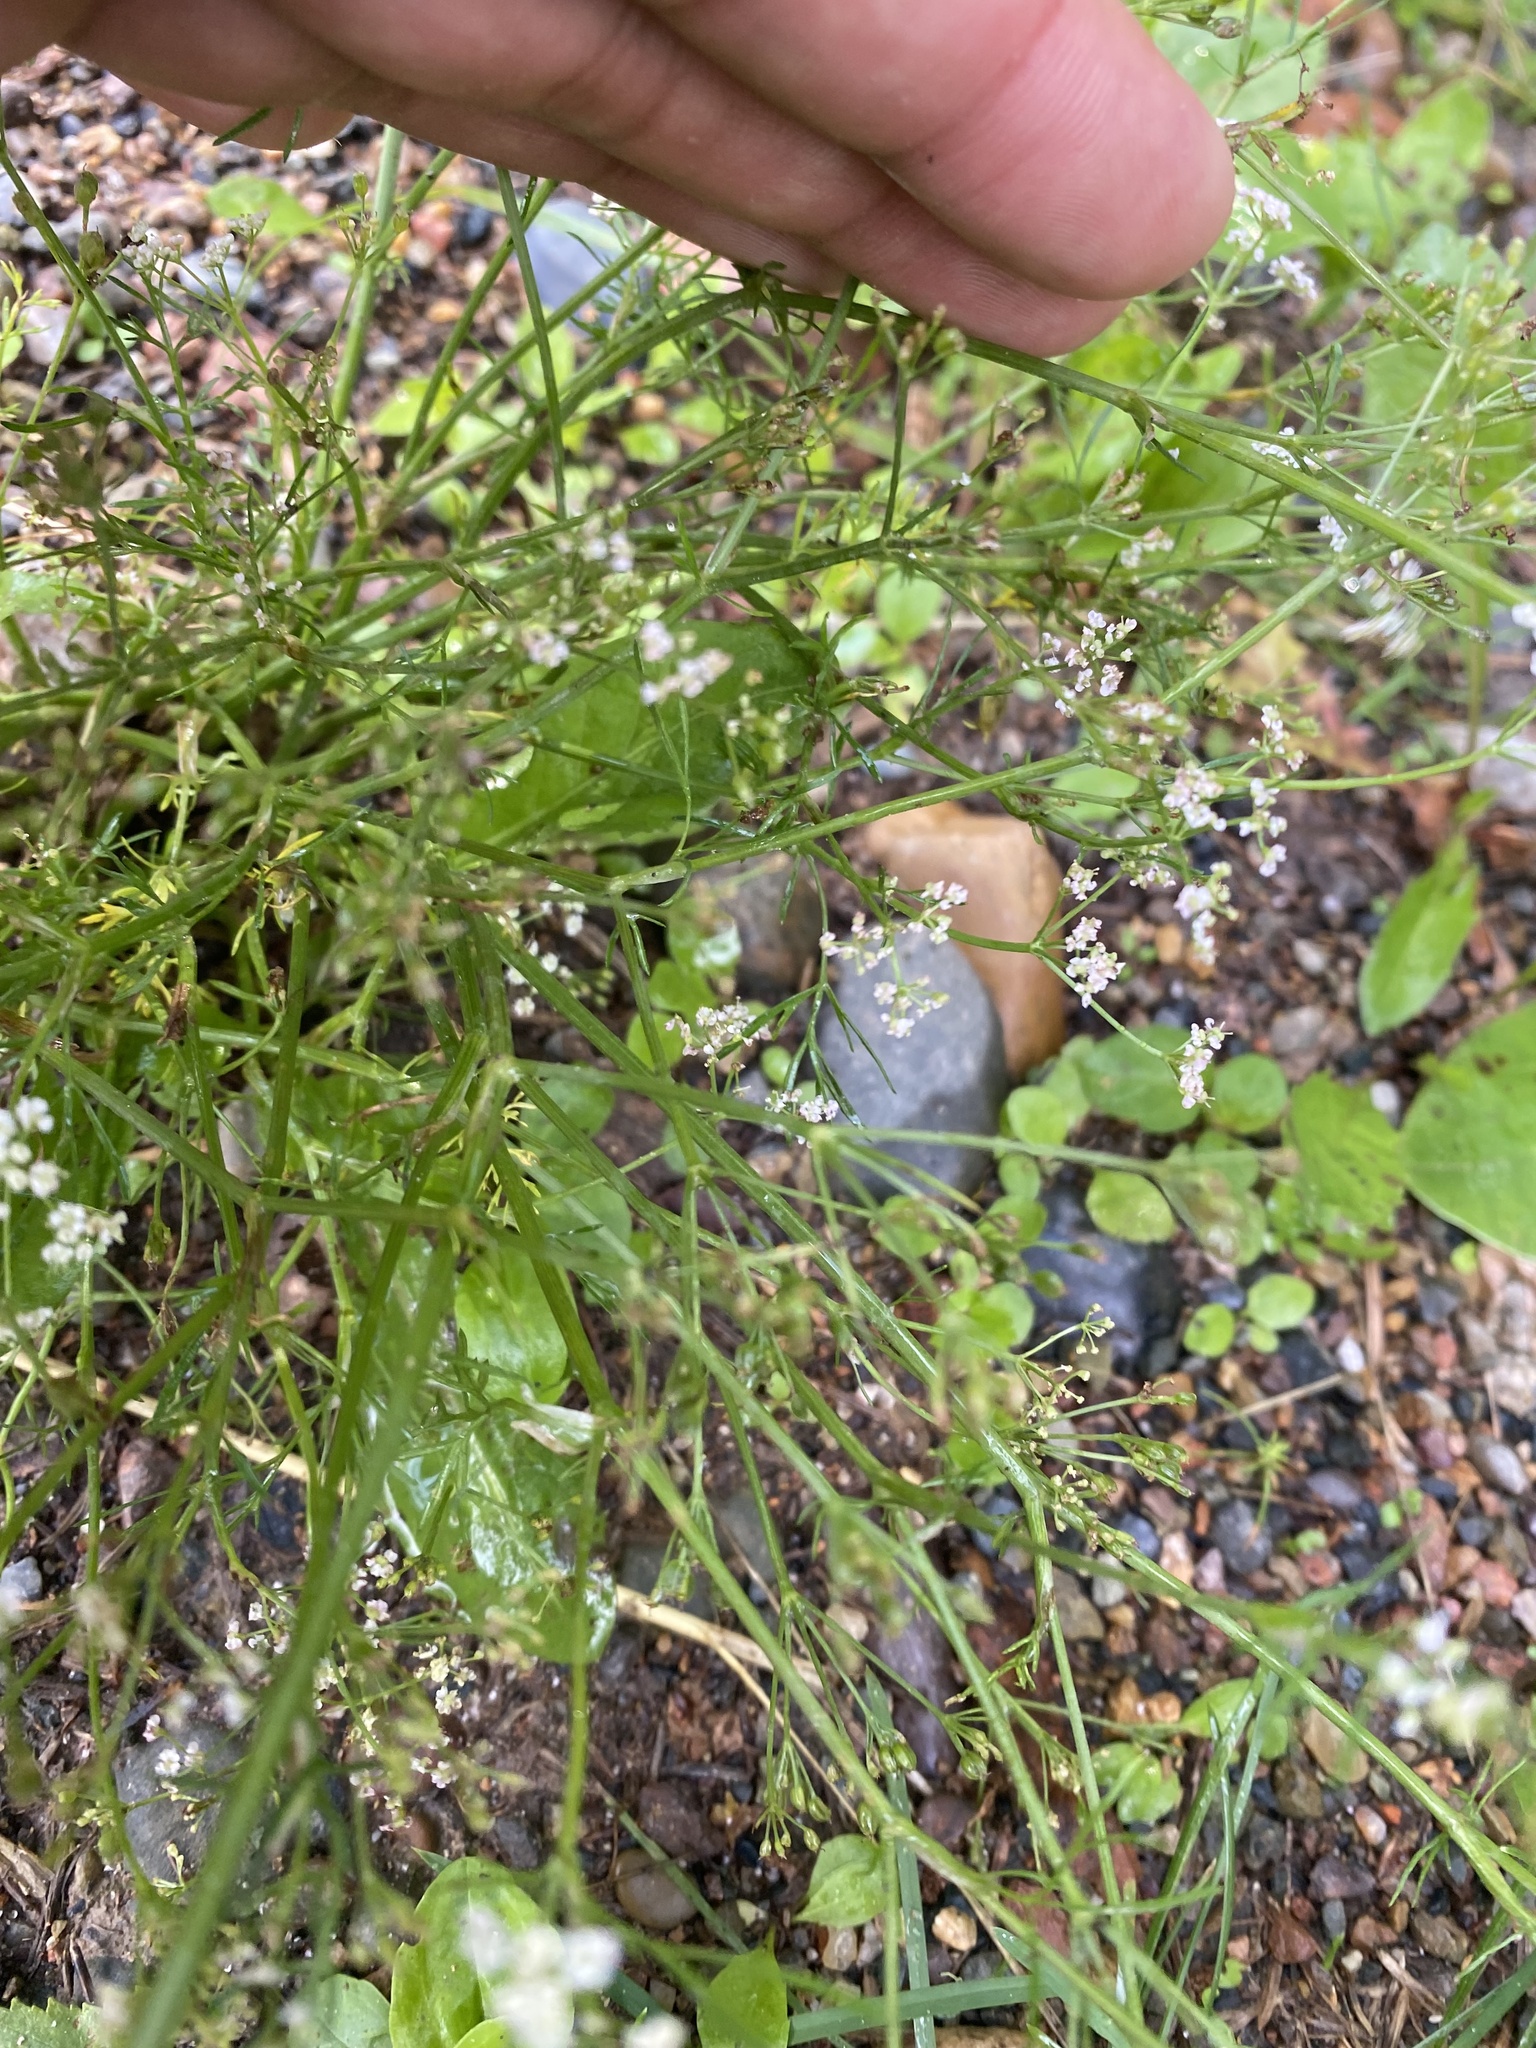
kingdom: Plantae
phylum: Tracheophyta
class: Magnoliopsida
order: Apiales
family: Apiaceae
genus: Carum
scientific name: Carum carvi
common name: Caraway
